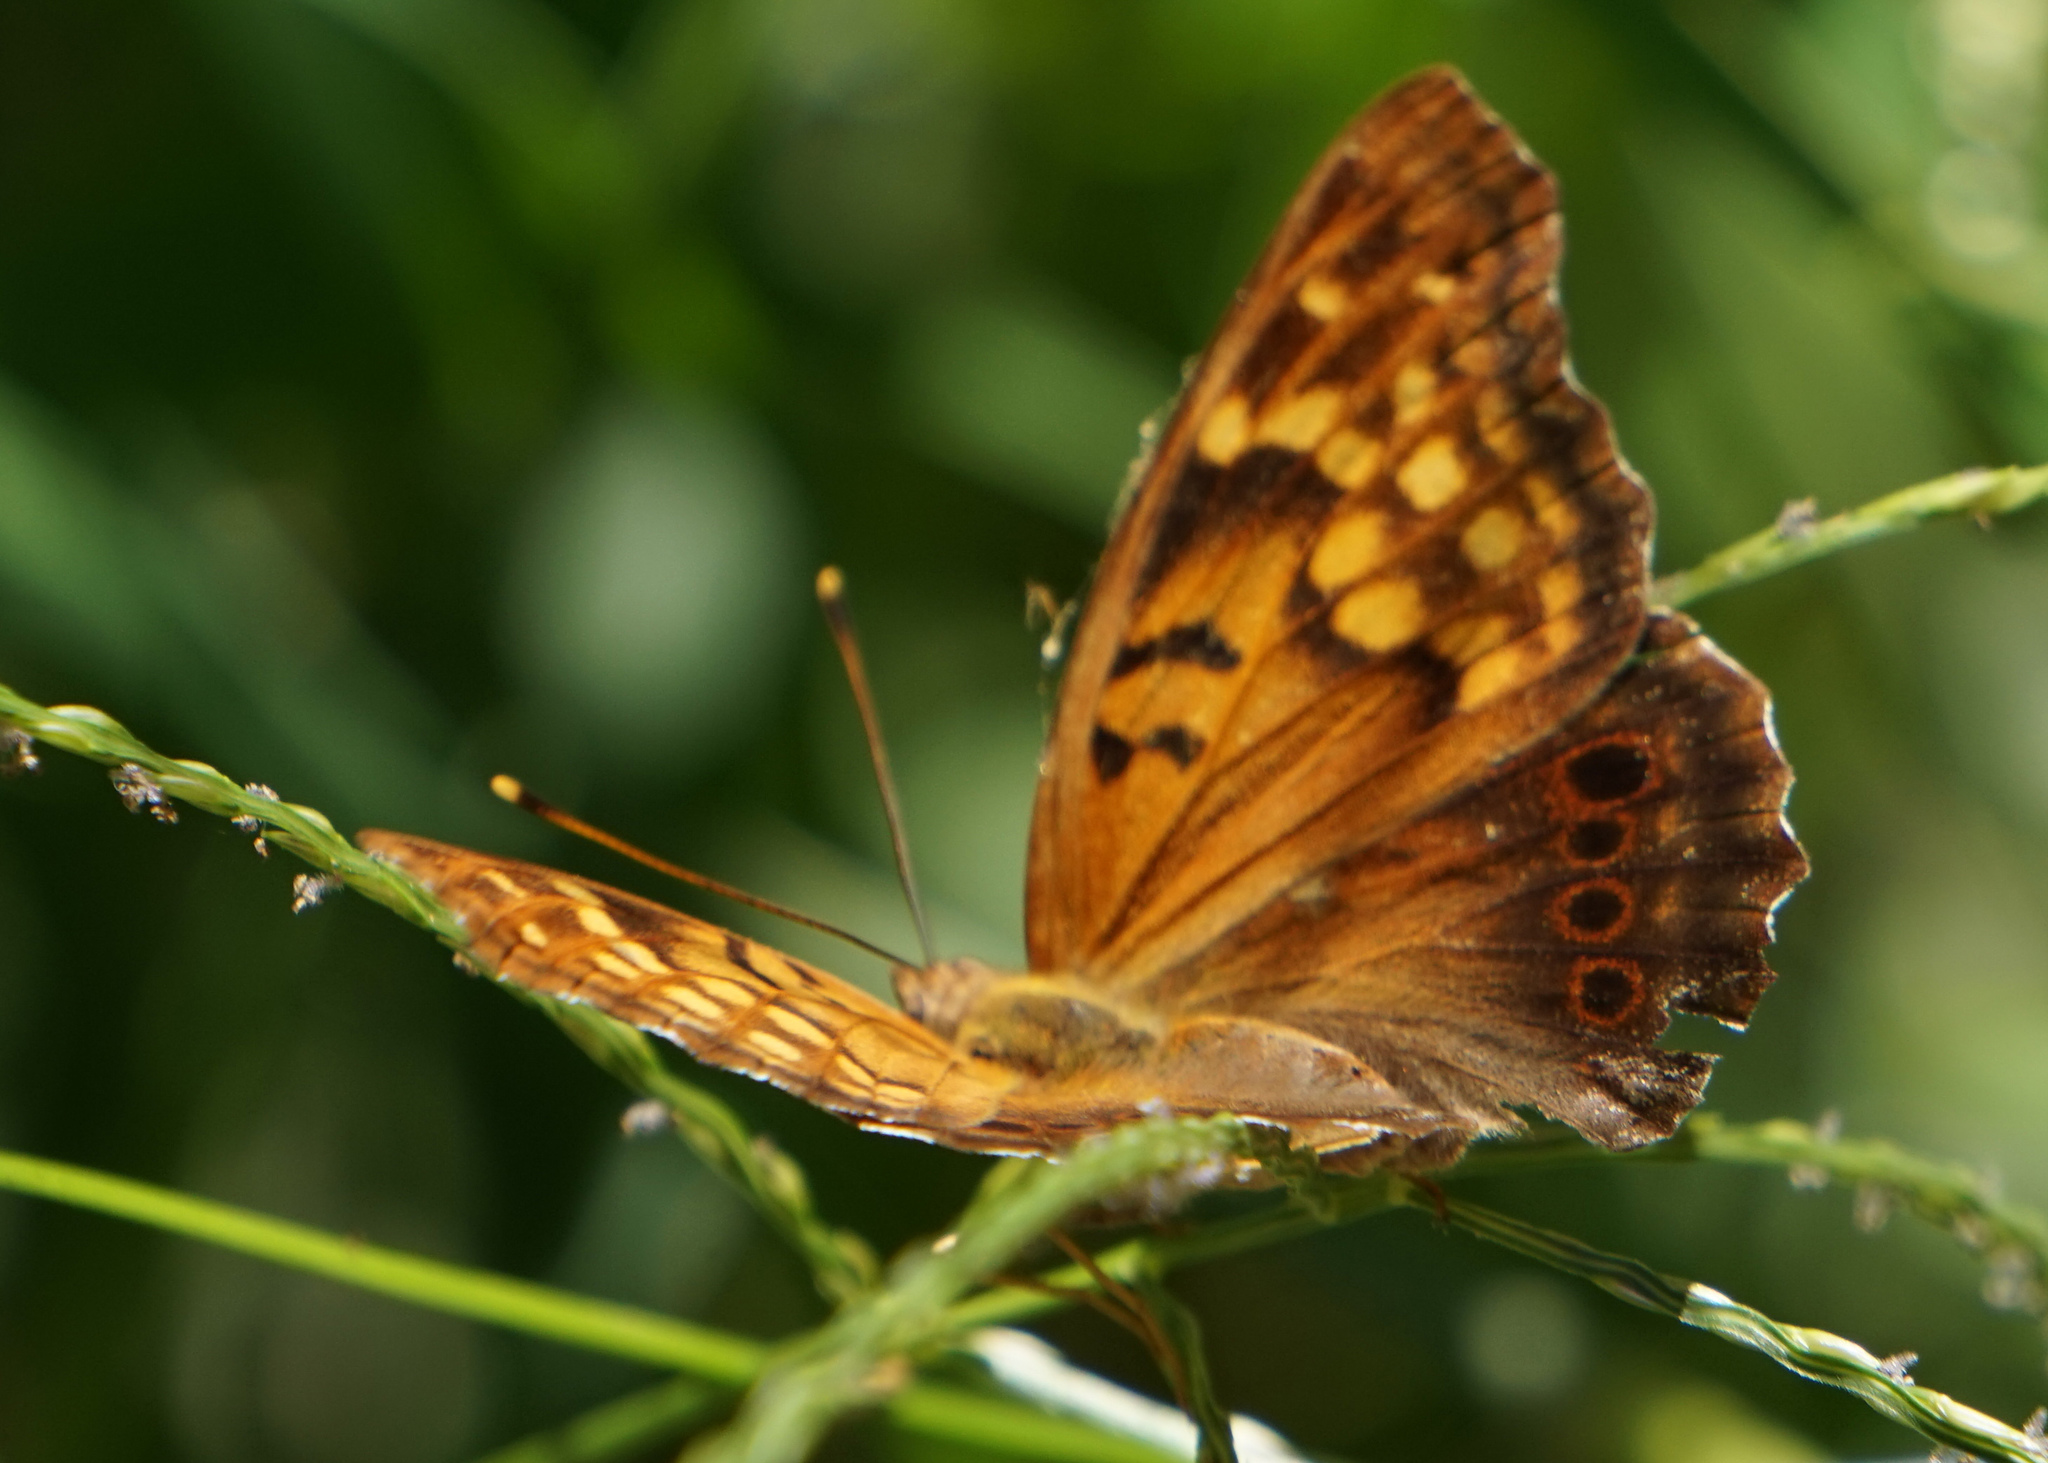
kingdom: Animalia
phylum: Arthropoda
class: Insecta
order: Lepidoptera
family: Nymphalidae
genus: Asterocampa
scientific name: Asterocampa clyton
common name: Tawny emperor
